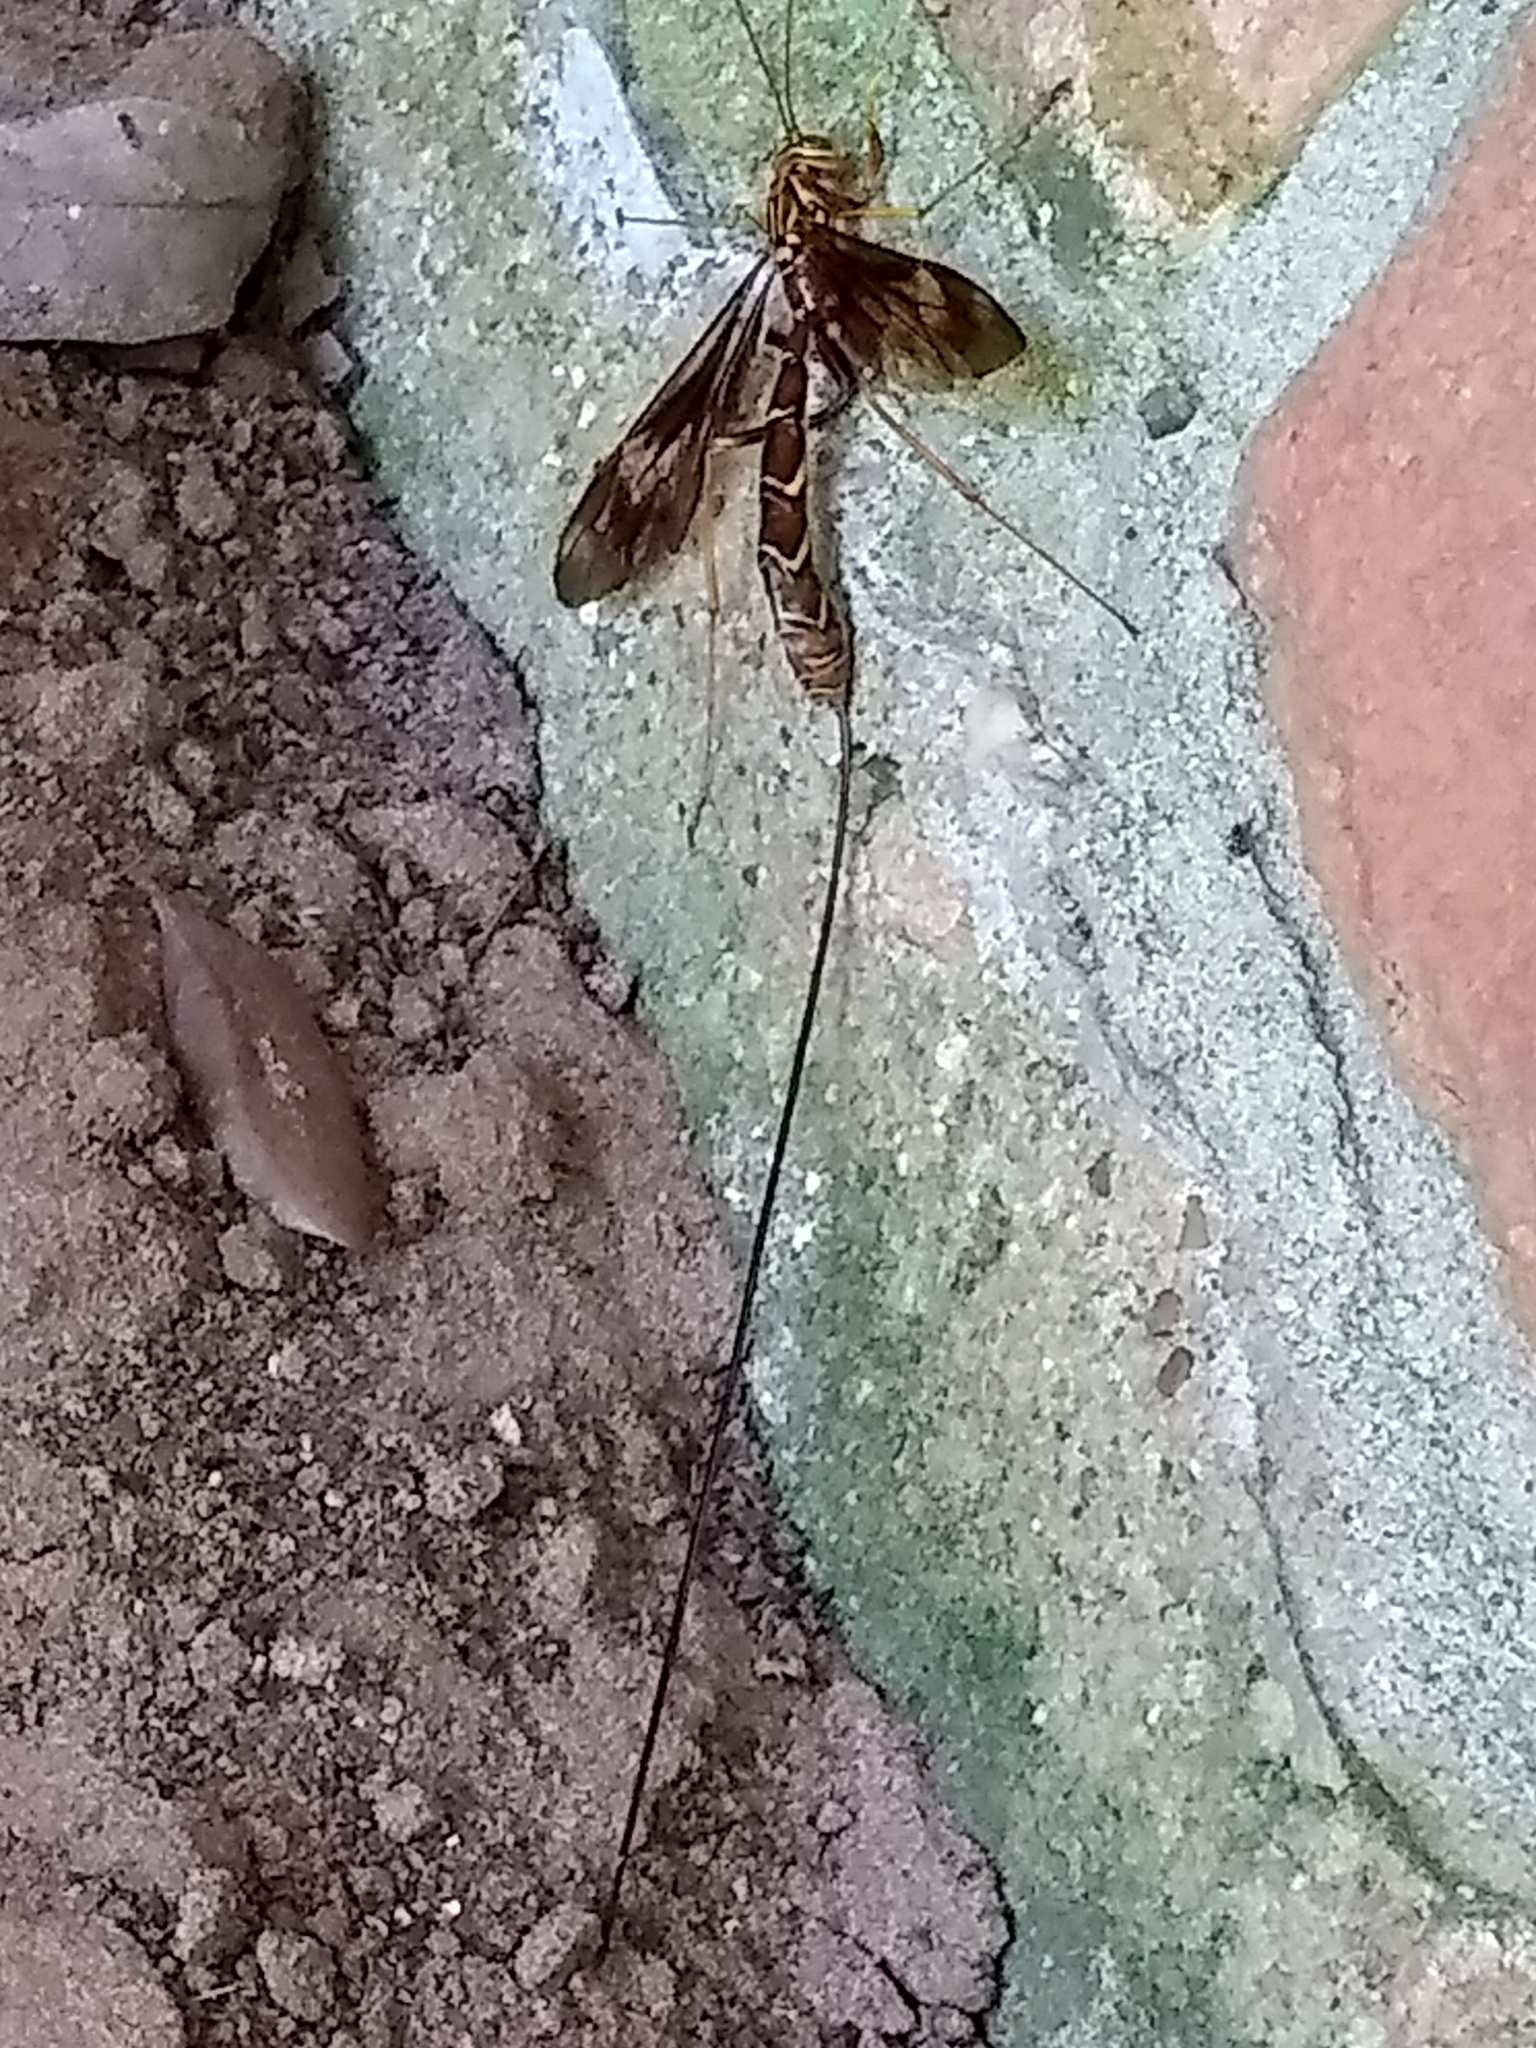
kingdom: Animalia
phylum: Arthropoda
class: Insecta
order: Hymenoptera
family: Ichneumonidae
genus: Megarhyssa
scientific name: Megarhyssa macrura
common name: Long-tailed giant ichneumonid wasp
